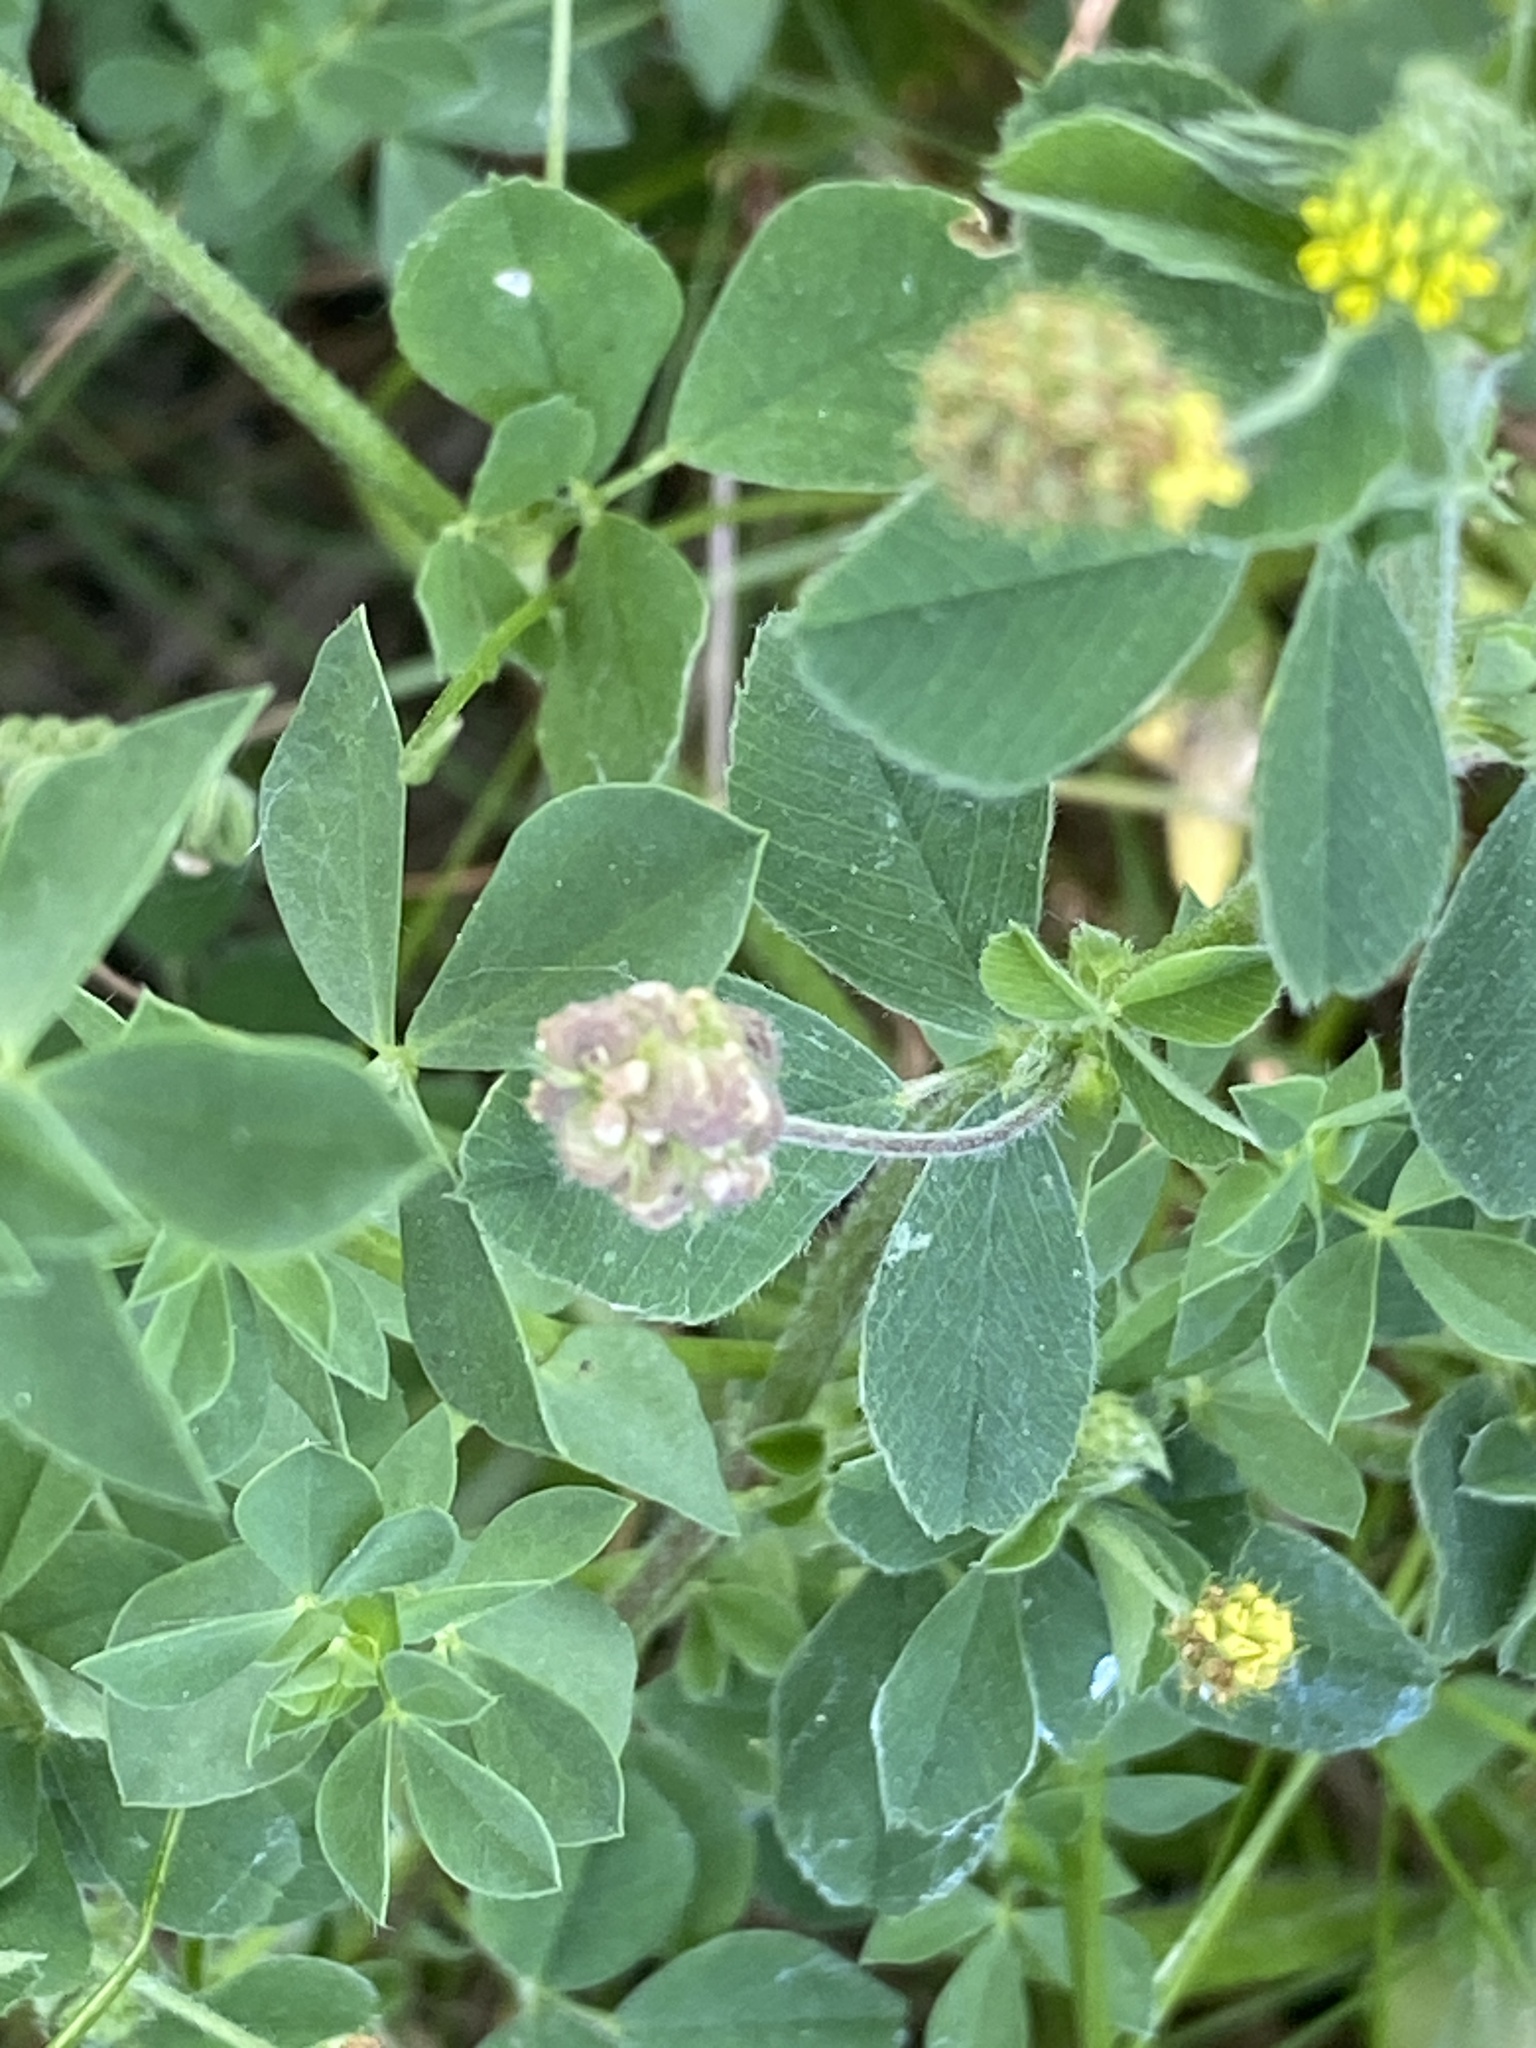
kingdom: Plantae
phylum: Tracheophyta
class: Magnoliopsida
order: Fabales
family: Fabaceae
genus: Medicago
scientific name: Medicago lupulina
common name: Black medick
